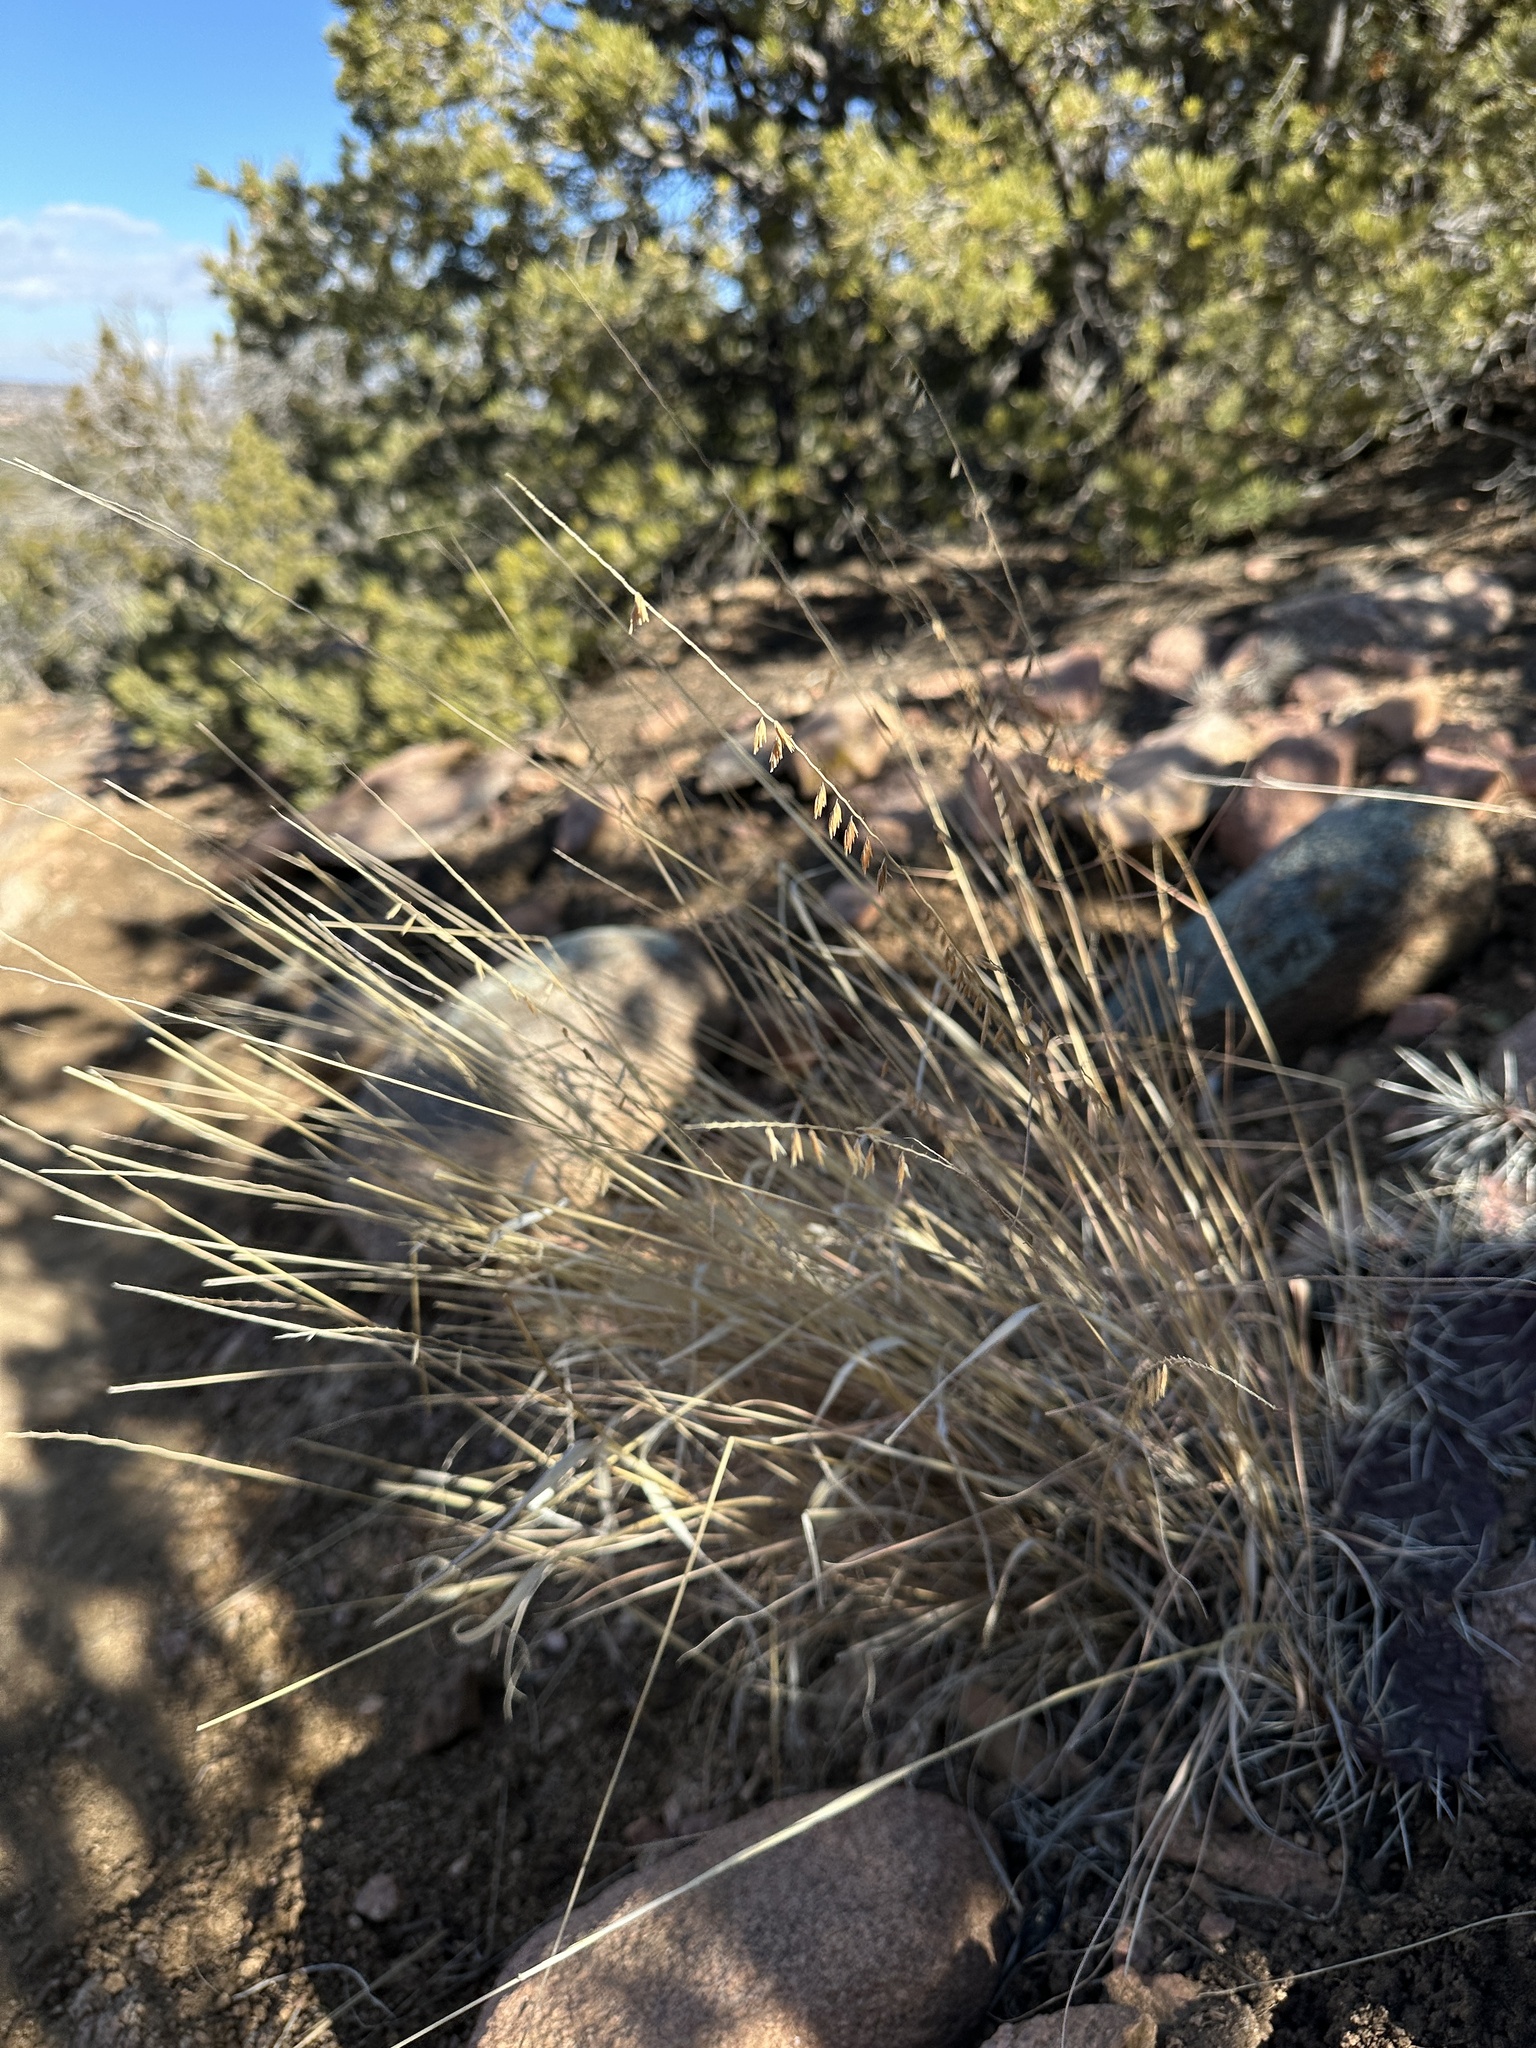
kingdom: Plantae
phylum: Tracheophyta
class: Liliopsida
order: Poales
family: Poaceae
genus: Bouteloua
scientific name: Bouteloua curtipendula
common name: Side-oats grama
